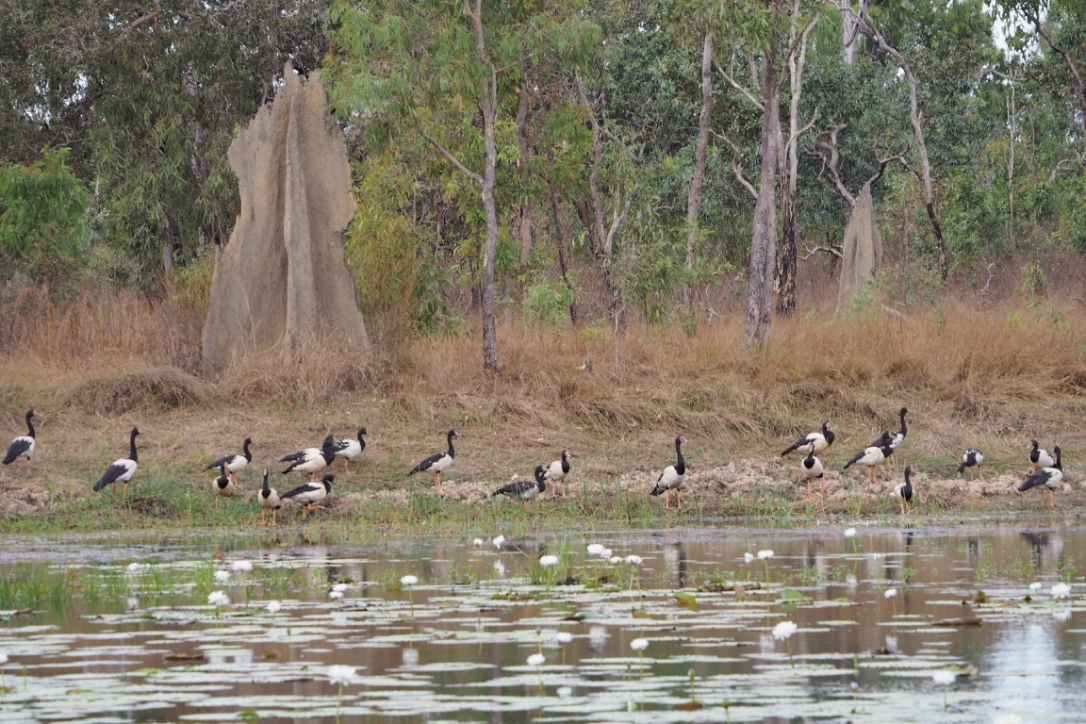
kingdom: Animalia
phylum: Chordata
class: Aves
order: Anseriformes
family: Anseranatidae
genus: Anseranas
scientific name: Anseranas semipalmata
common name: Magpie goose
